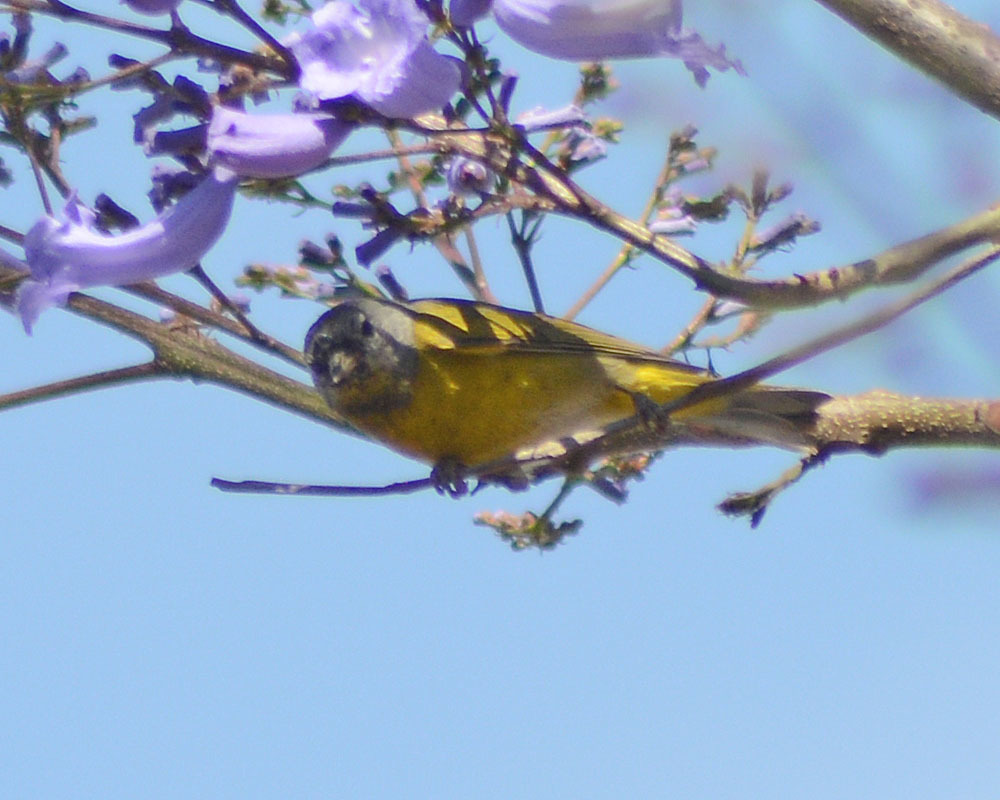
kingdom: Animalia
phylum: Chordata
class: Aves
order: Passeriformes
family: Parulidae
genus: Leiothlypis
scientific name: Leiothlypis ruficapilla
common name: Nashville warbler
